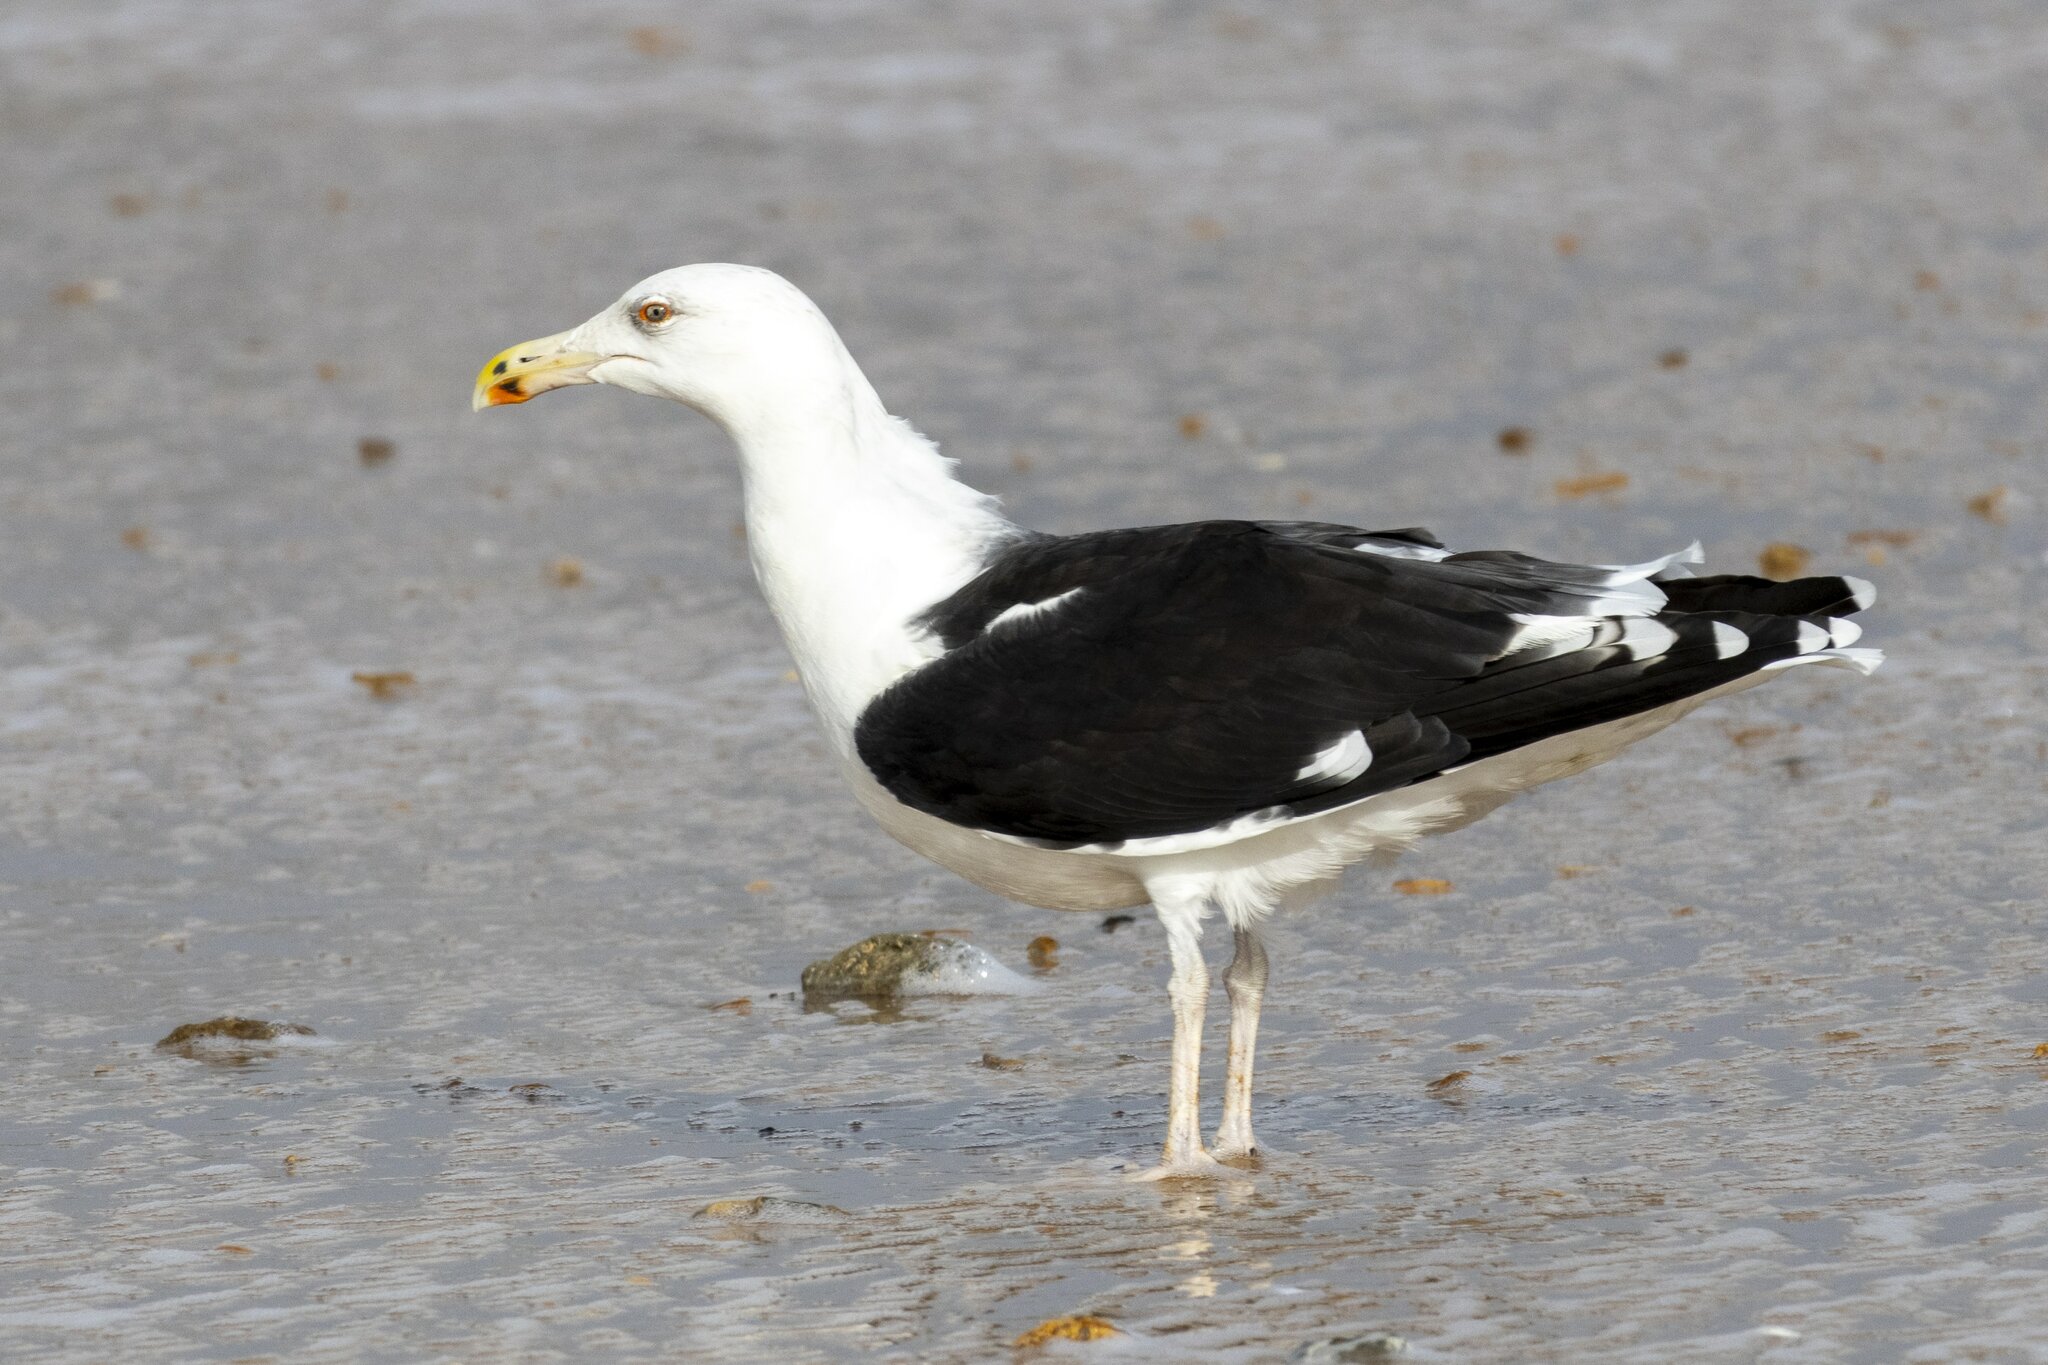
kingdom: Animalia
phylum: Chordata
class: Aves
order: Charadriiformes
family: Laridae
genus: Larus
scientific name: Larus marinus
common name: Great black-backed gull
